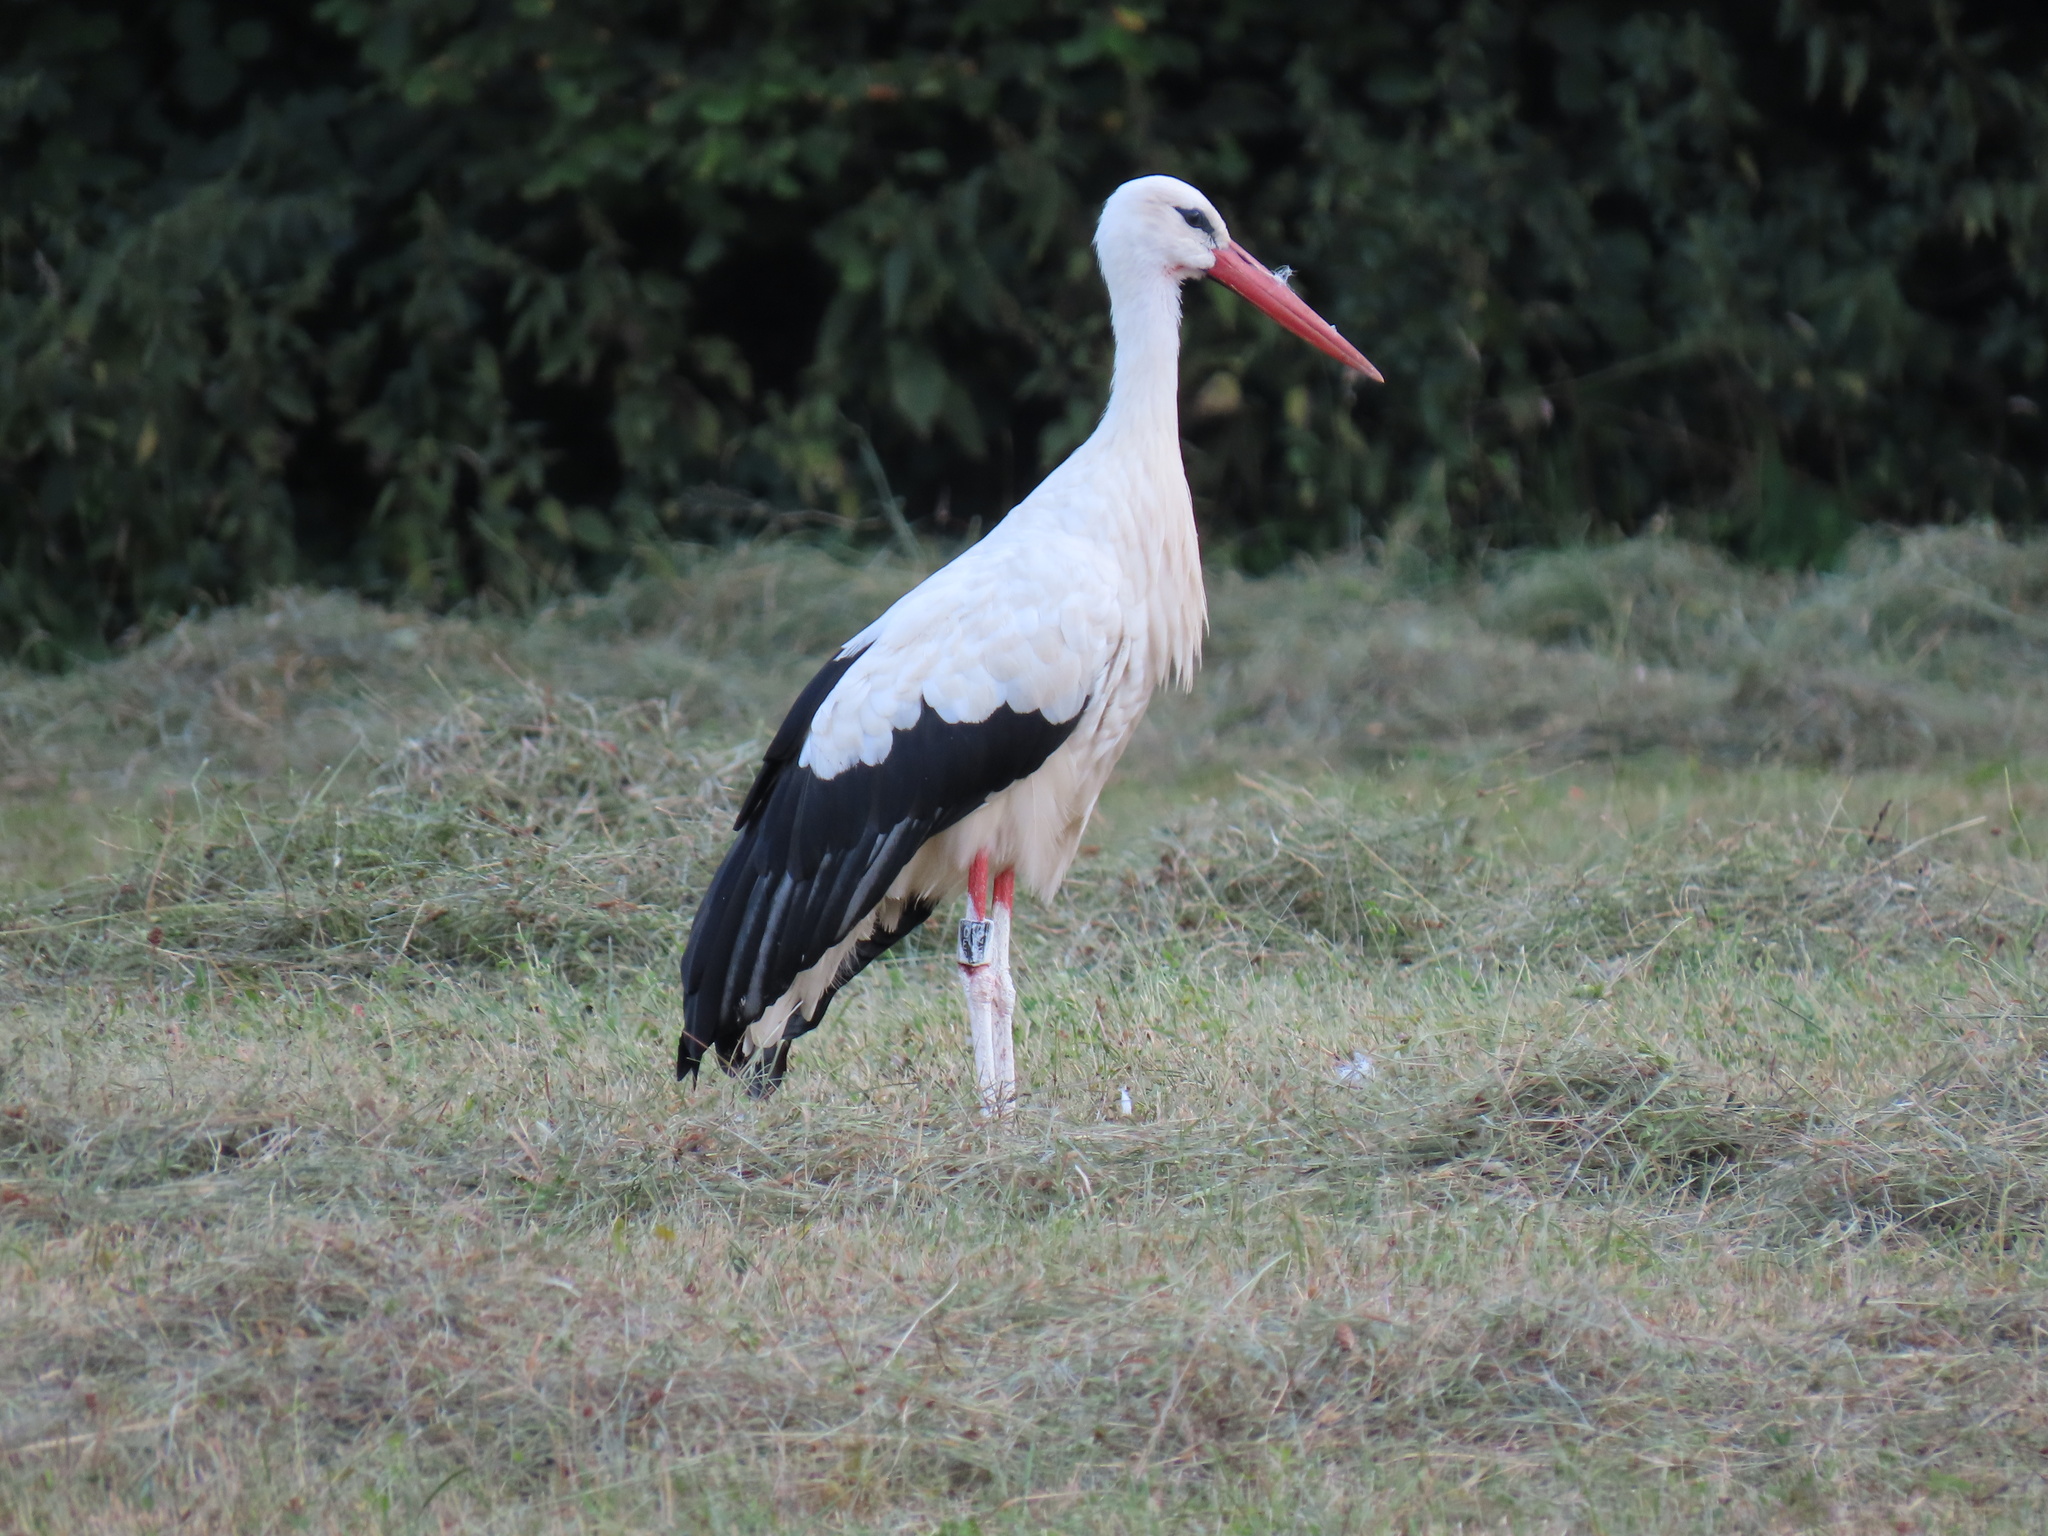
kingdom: Animalia
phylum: Chordata
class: Aves
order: Ciconiiformes
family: Ciconiidae
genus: Ciconia
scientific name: Ciconia ciconia
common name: White stork
